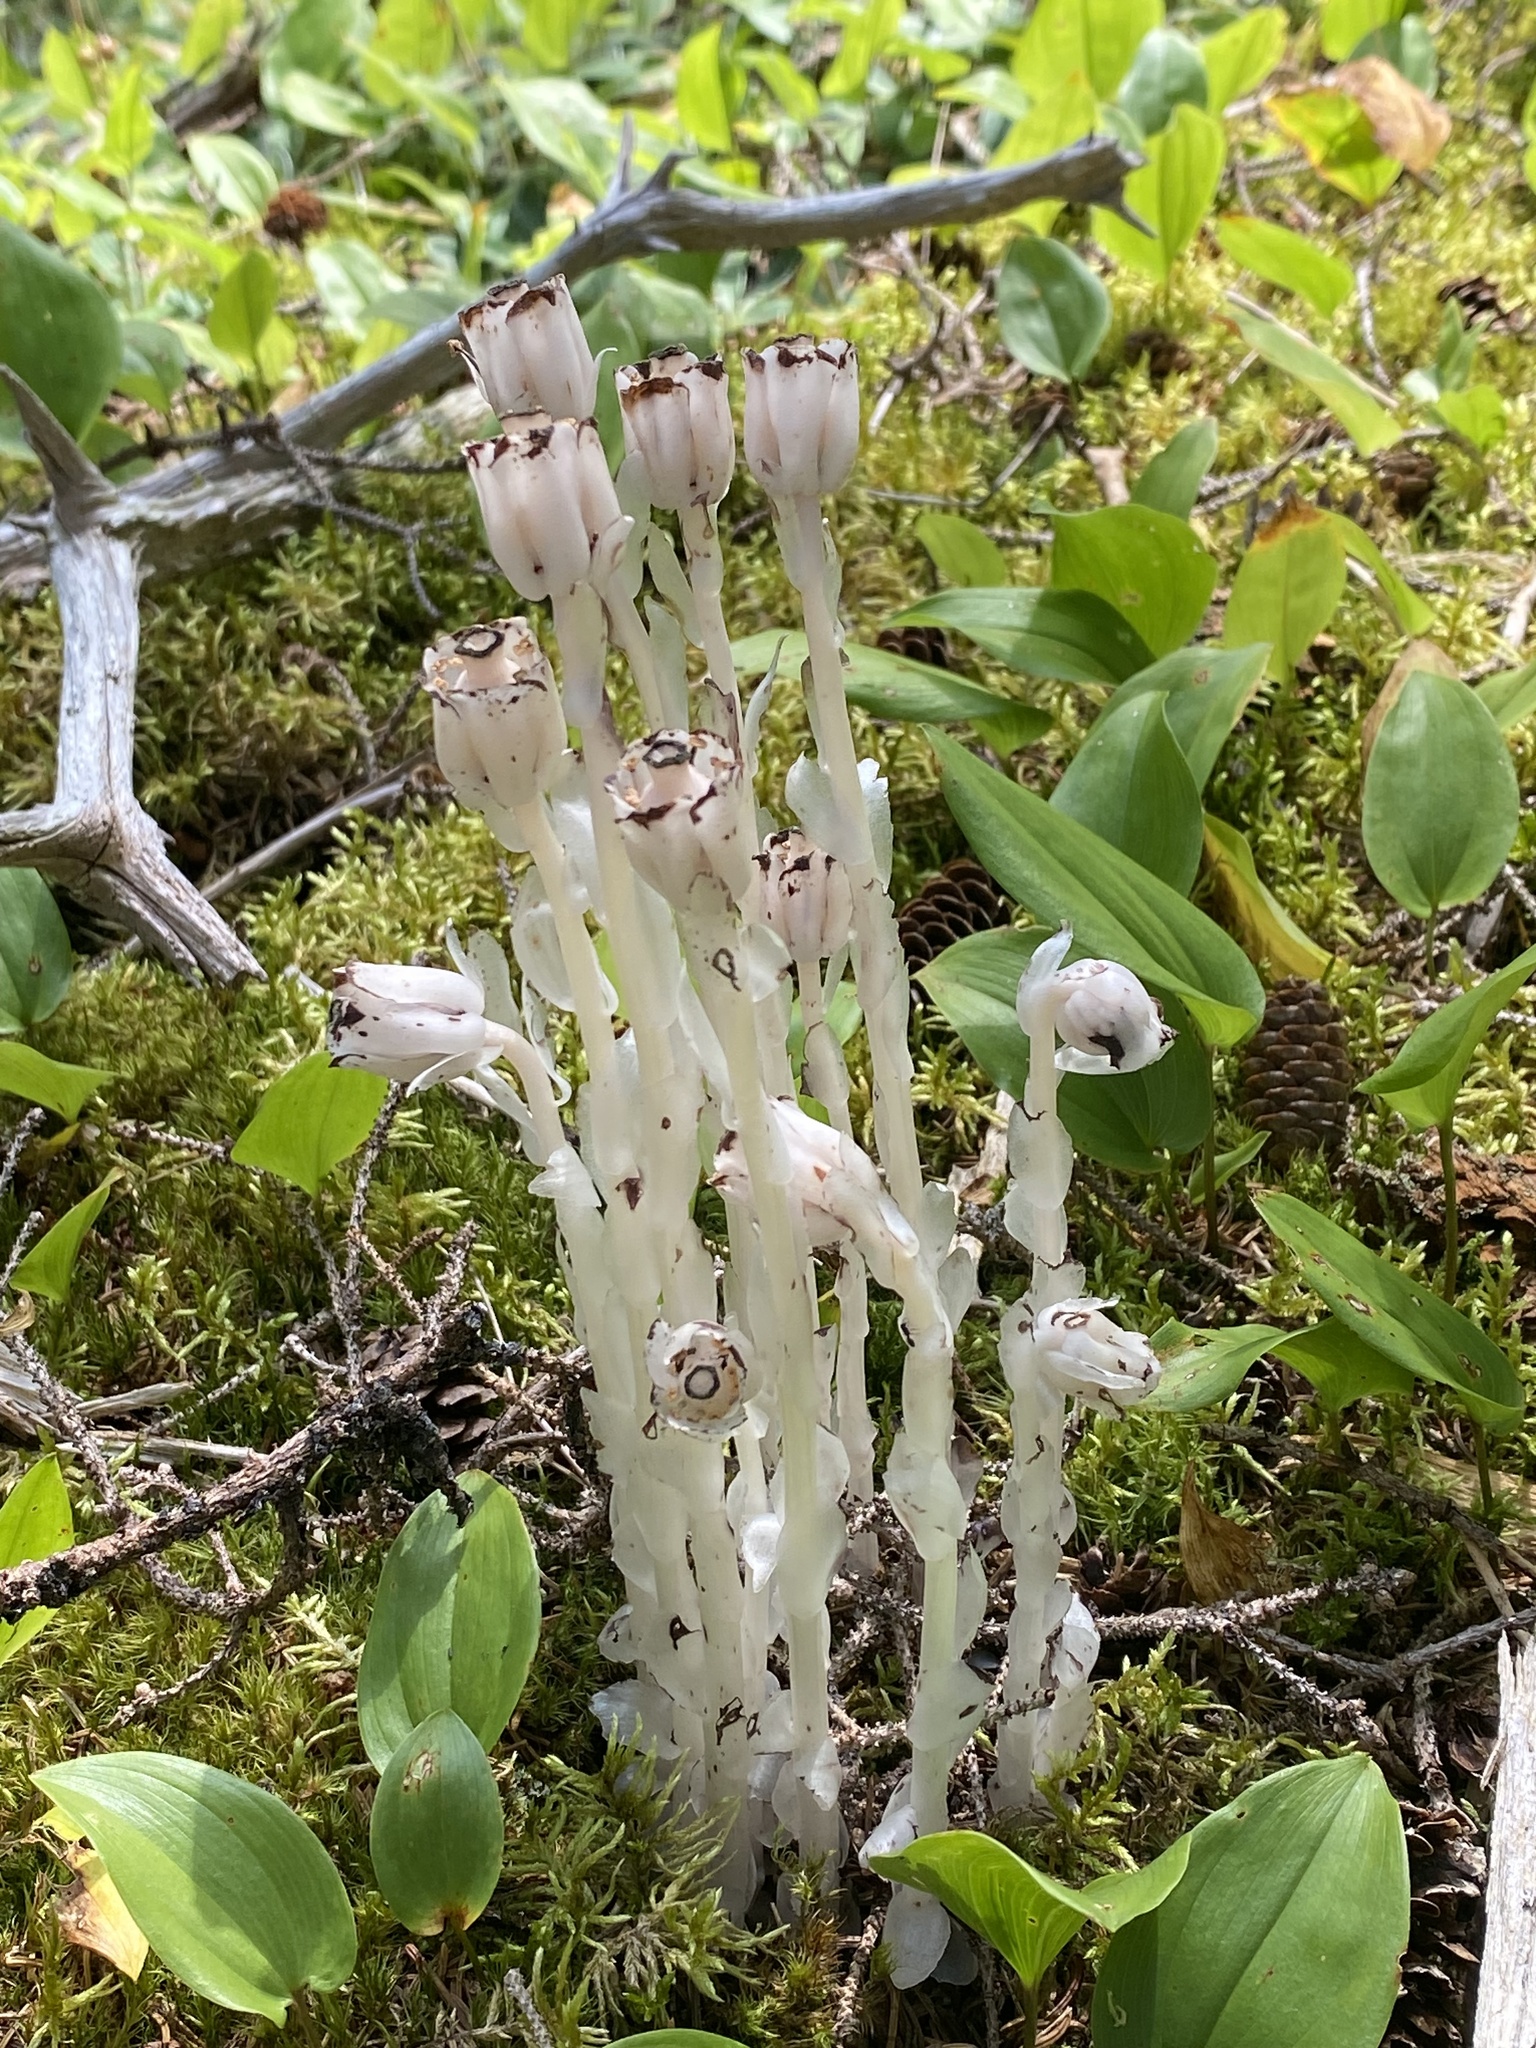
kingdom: Plantae
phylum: Tracheophyta
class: Magnoliopsida
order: Ericales
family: Ericaceae
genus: Monotropa
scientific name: Monotropa uniflora
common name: Convulsion root
